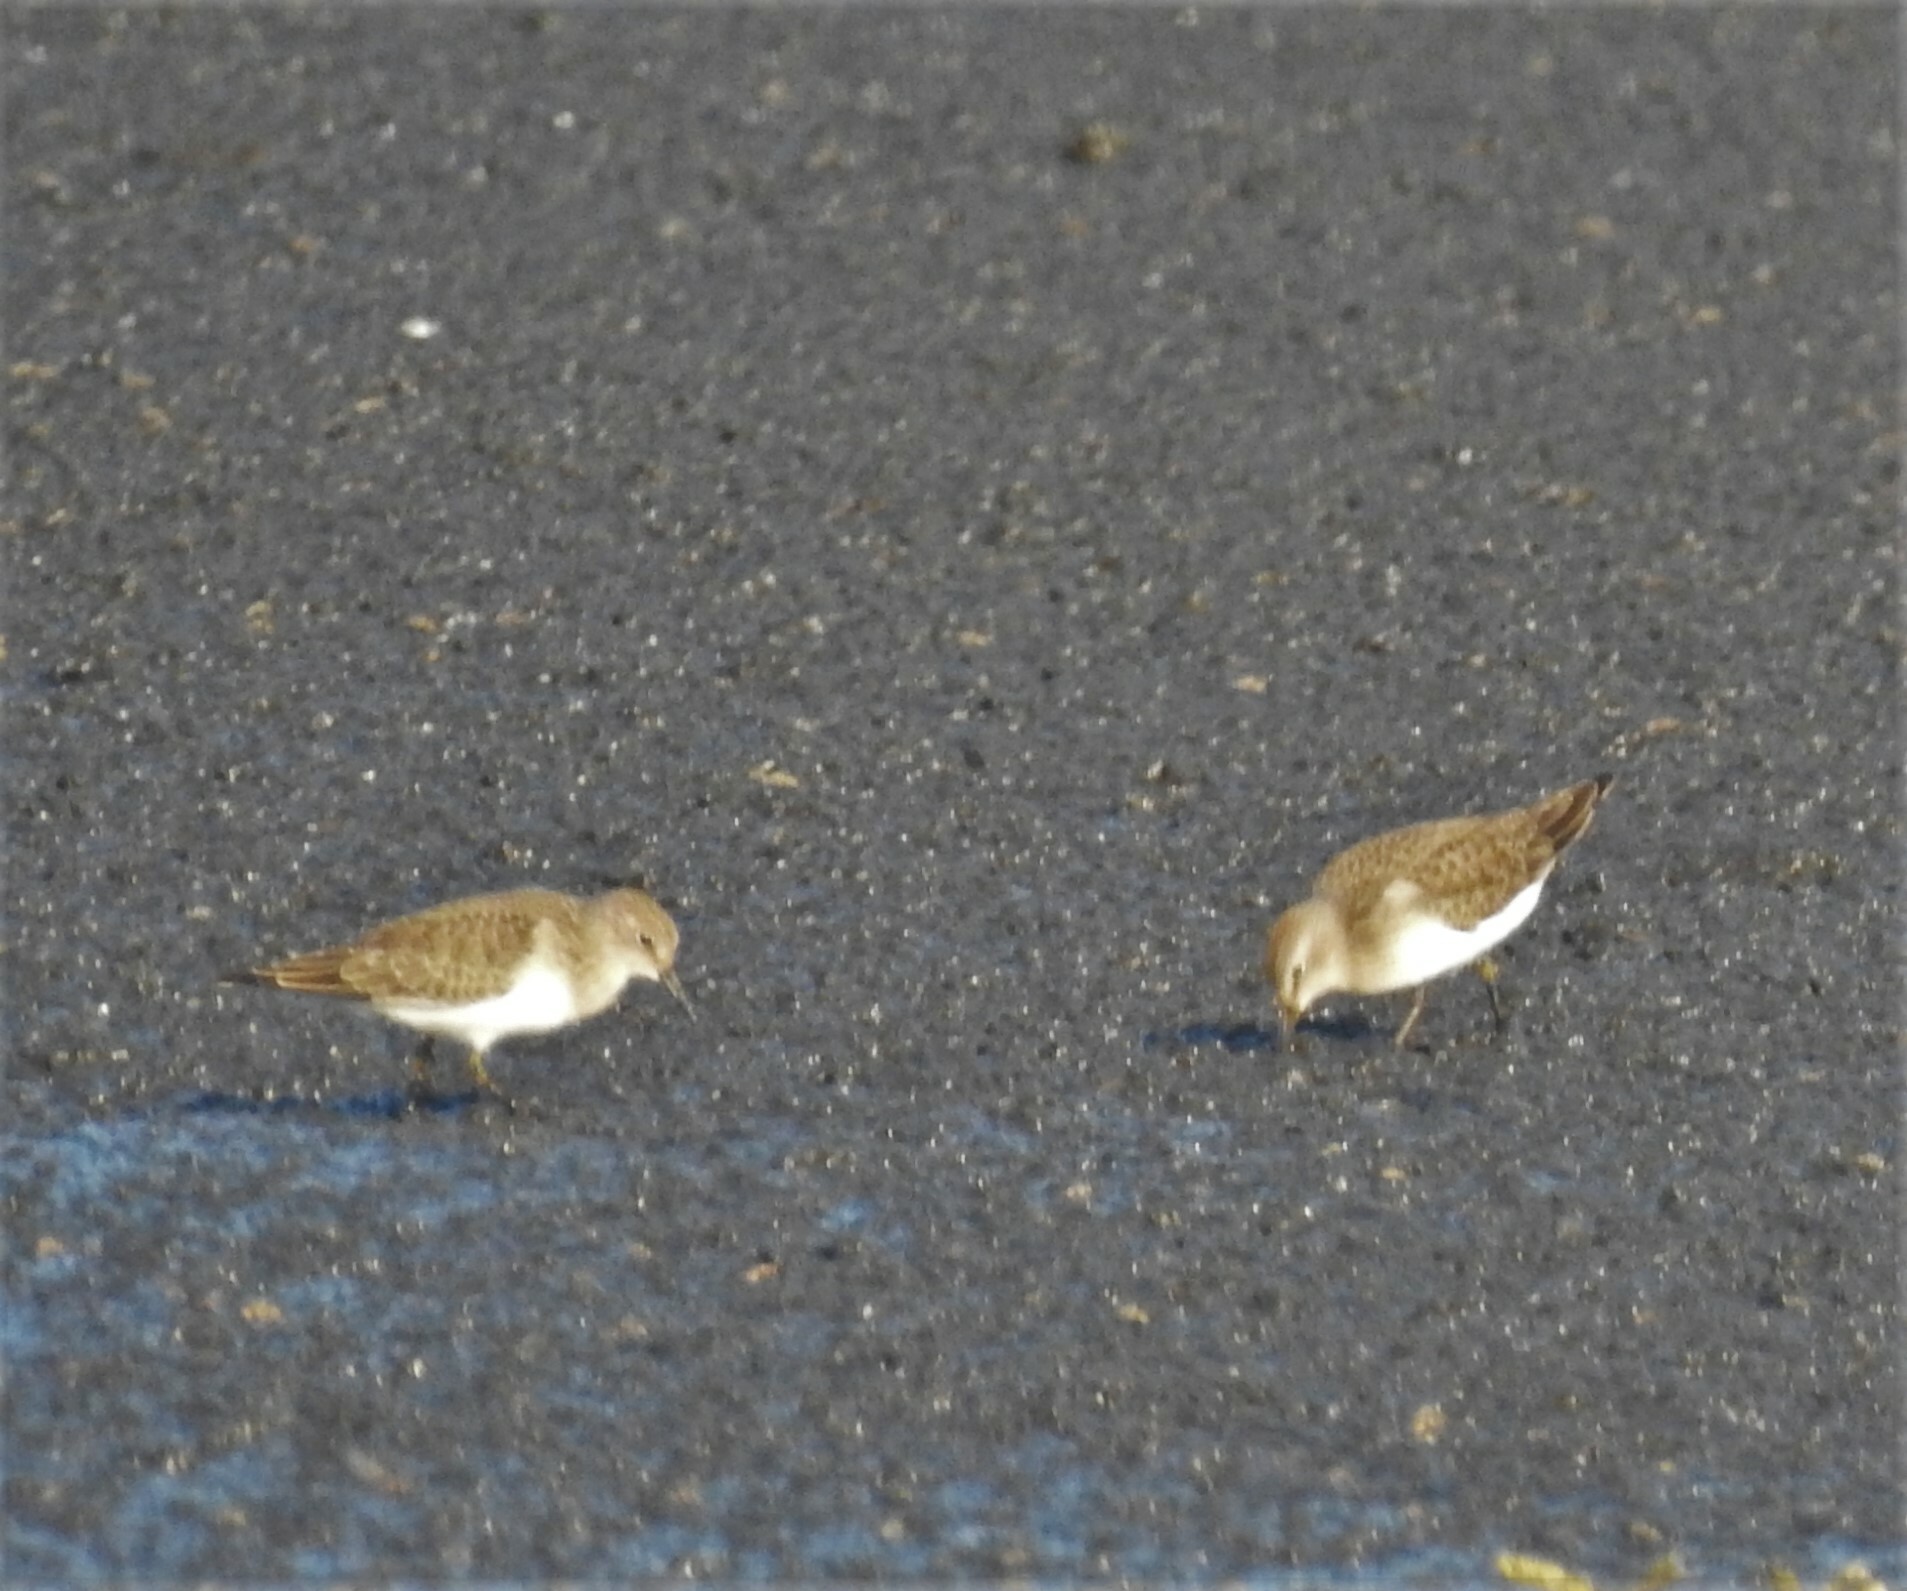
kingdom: Animalia
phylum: Chordata
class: Aves
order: Charadriiformes
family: Scolopacidae
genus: Calidris
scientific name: Calidris temminckii
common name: Temminck's stint
